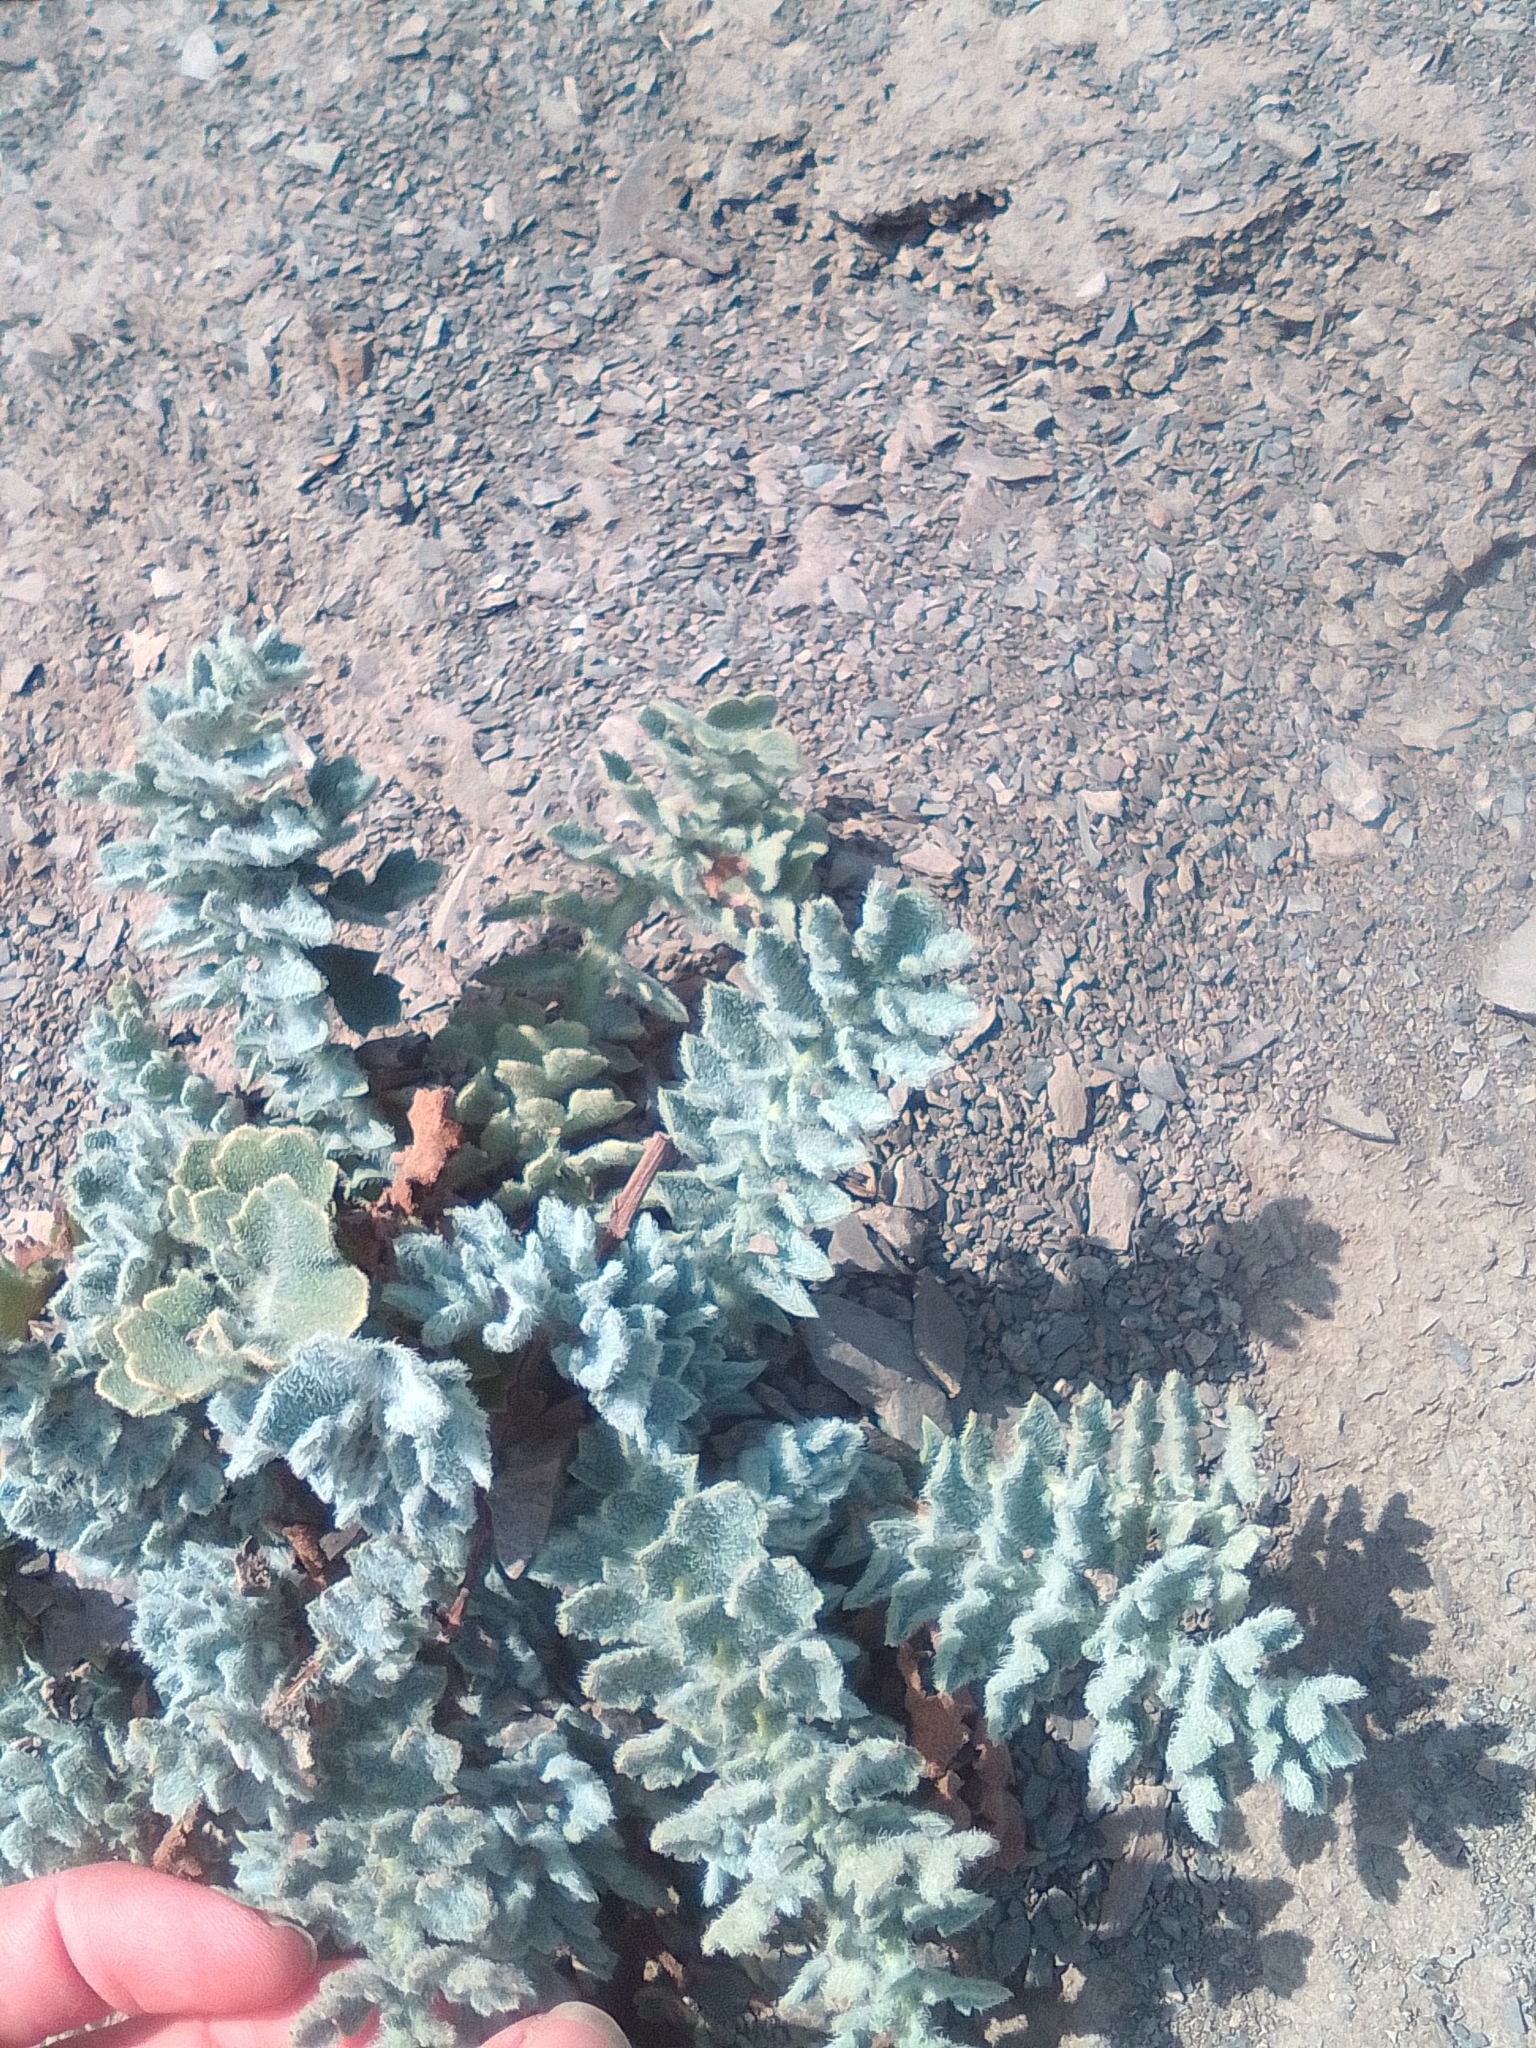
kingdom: Plantae
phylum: Tracheophyta
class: Magnoliopsida
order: Ranunculales
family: Papaveraceae
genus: Glaucium
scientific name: Glaucium flavum
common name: Yellow horned-poppy
